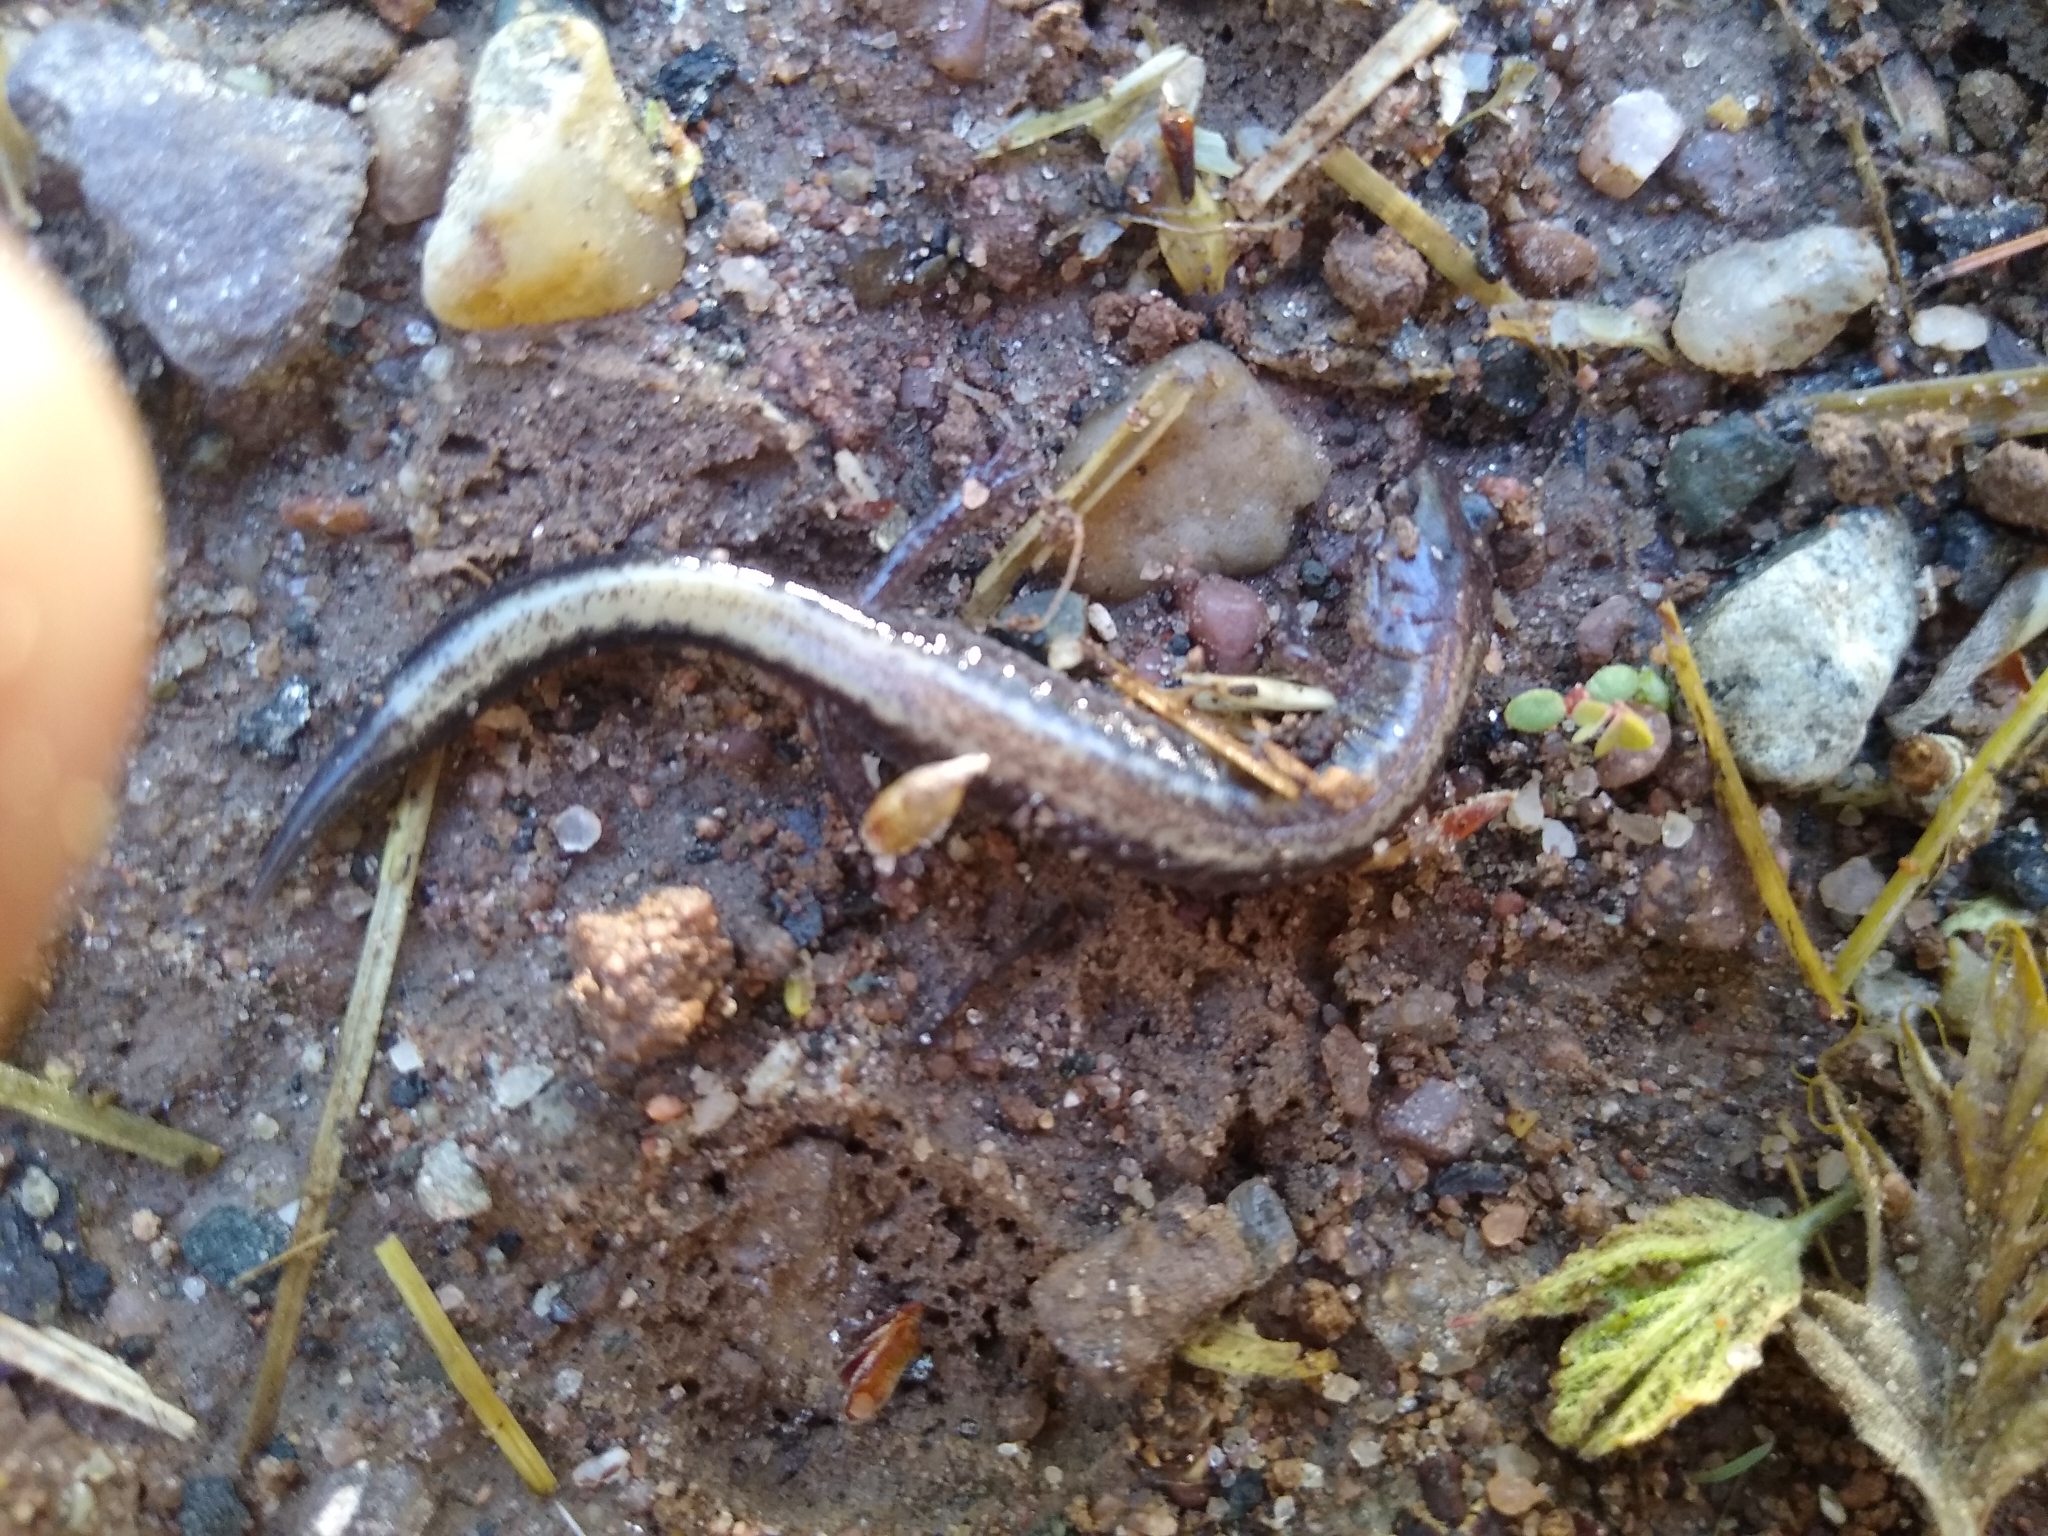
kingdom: Animalia
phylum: Chordata
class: Amphibia
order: Caudata
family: Plethodontidae
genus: Plethodon
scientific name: Plethodon cinereus
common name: Redback salamander
